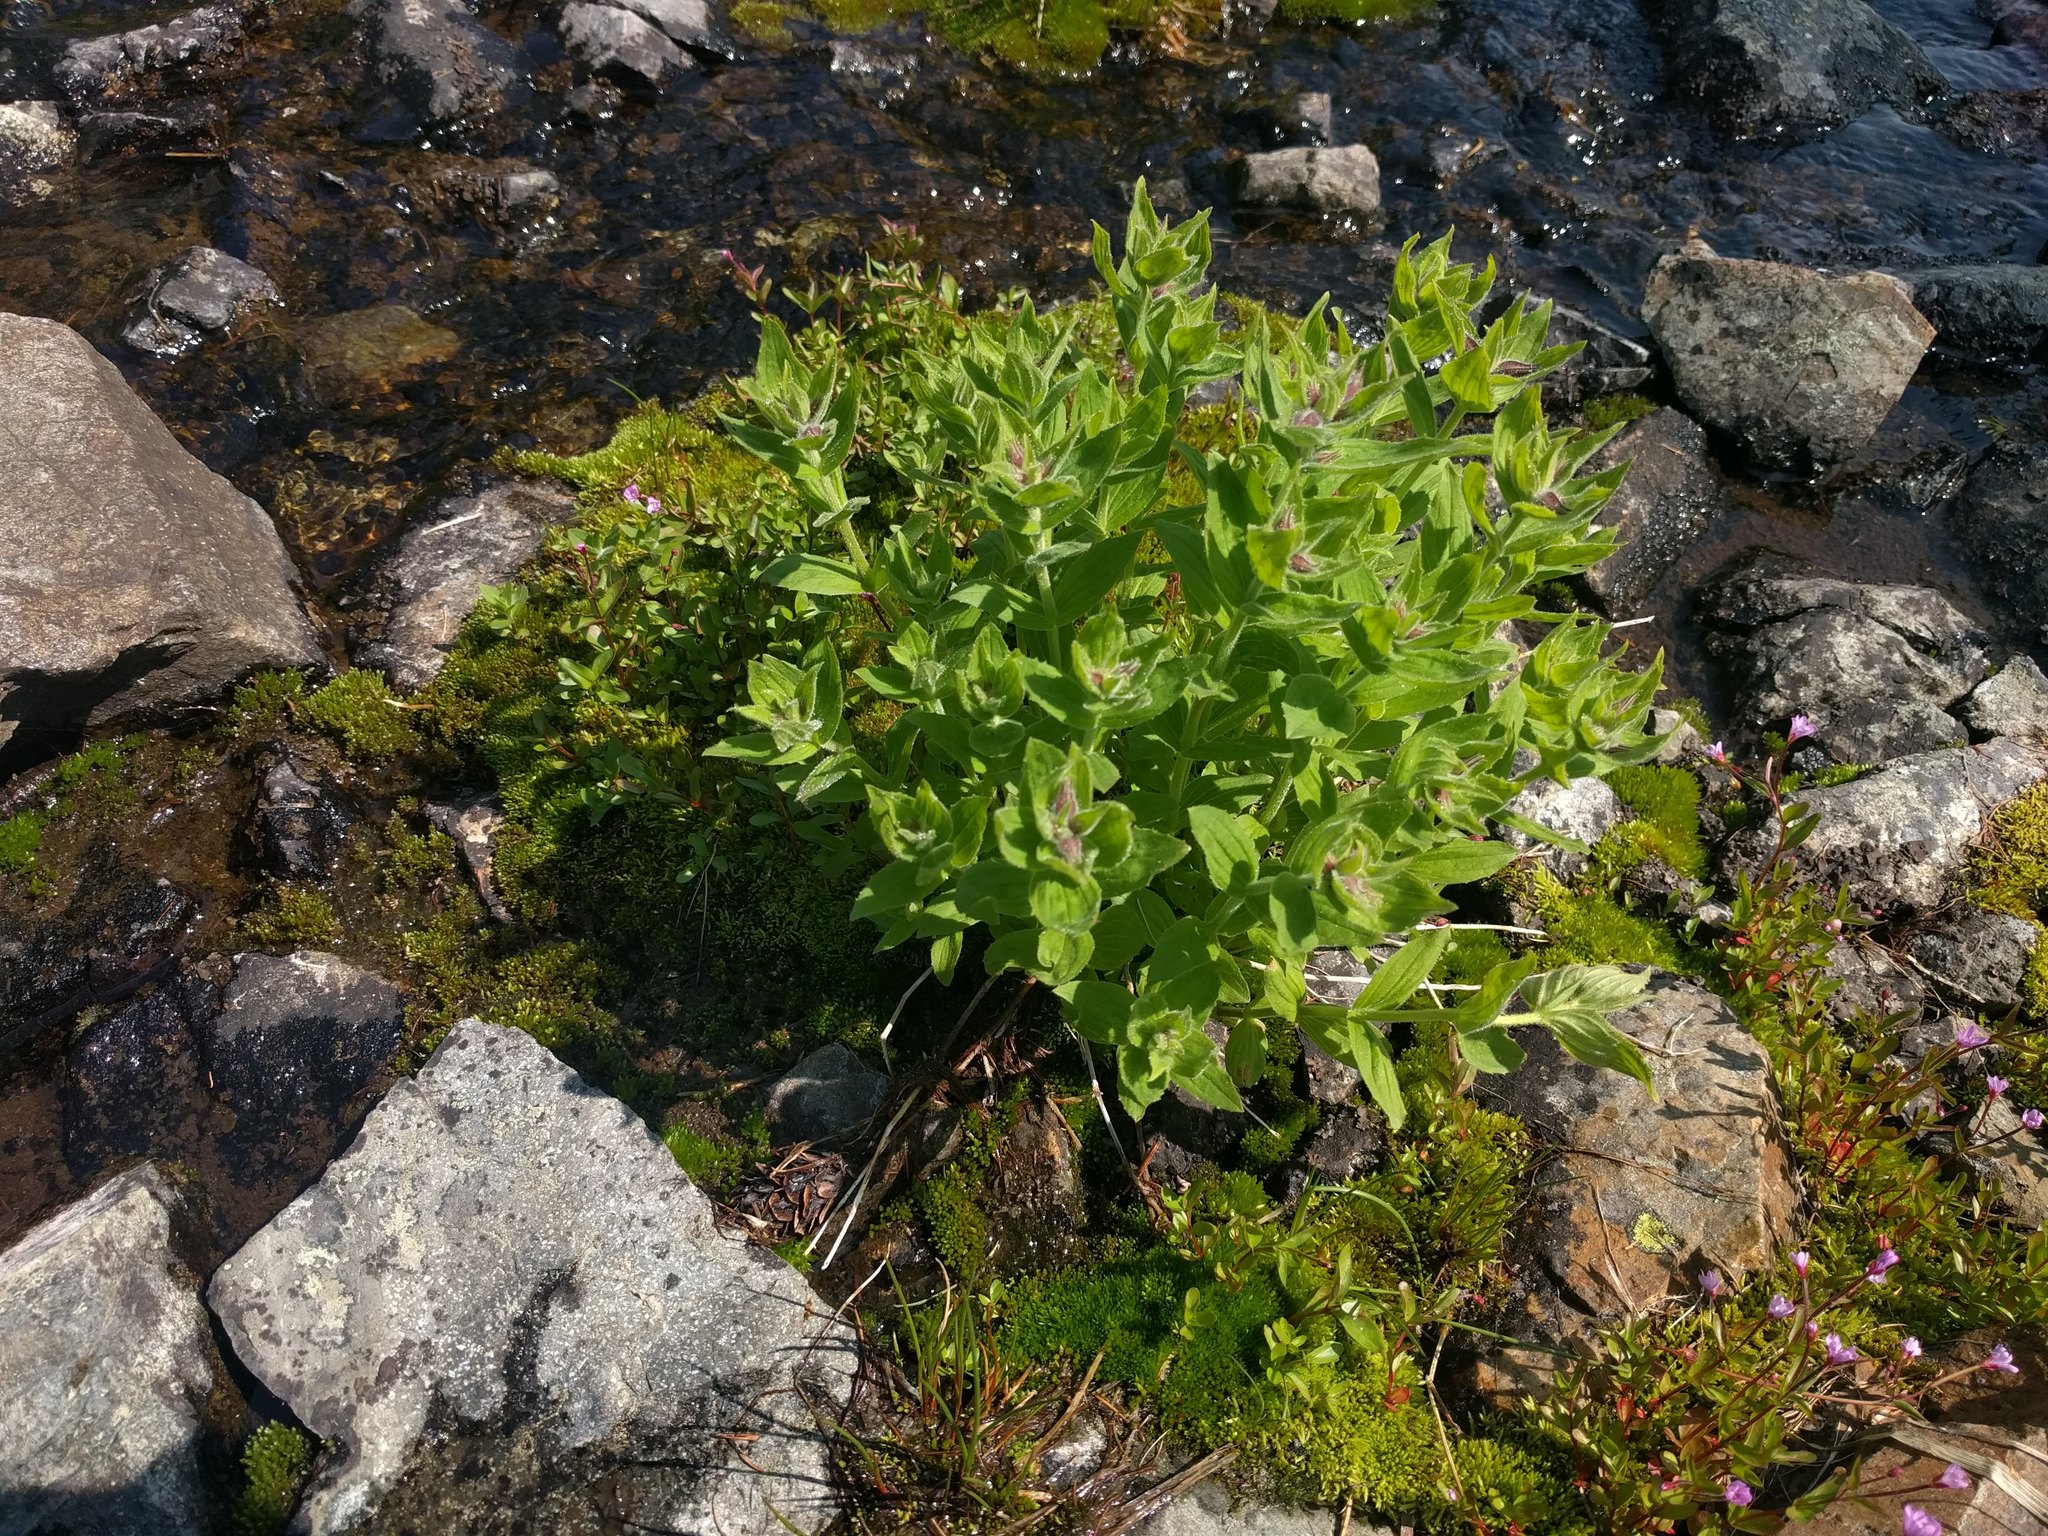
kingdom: Plantae
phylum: Tracheophyta
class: Magnoliopsida
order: Lamiales
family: Phrymaceae
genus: Erythranthe
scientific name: Erythranthe lewisii
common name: Lewis's monkey-flower
